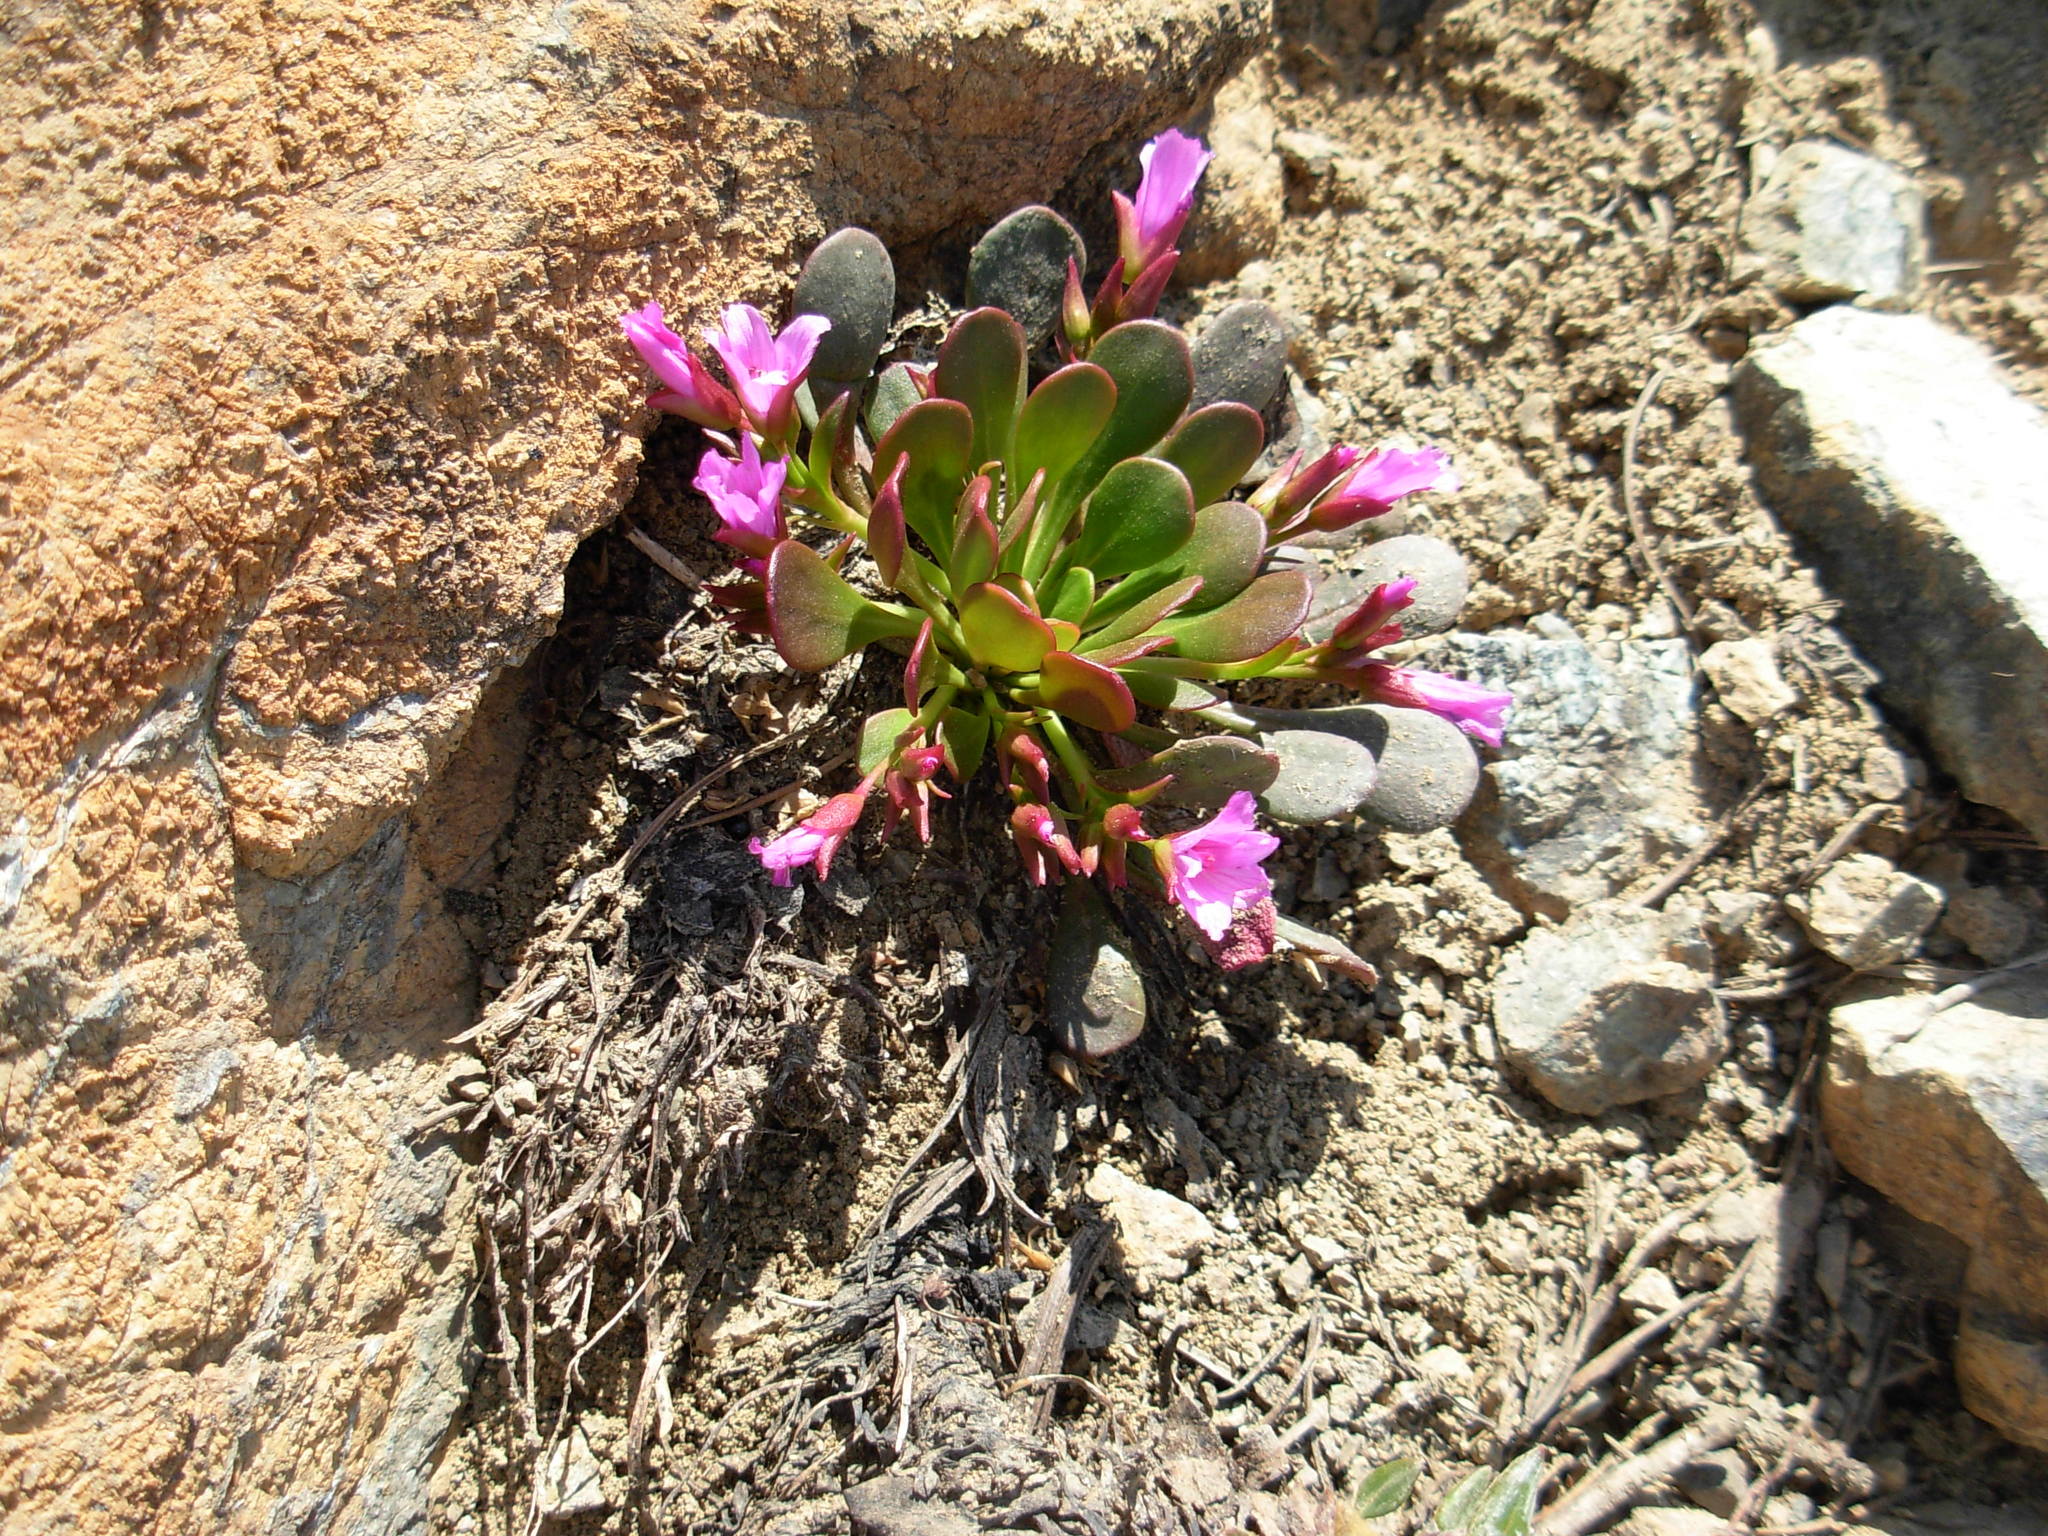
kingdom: Plantae
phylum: Tracheophyta
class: Magnoliopsida
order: Caryophyllales
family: Montiaceae
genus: Claytonia
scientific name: Claytonia megarhiza
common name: Alpine spring beauty
